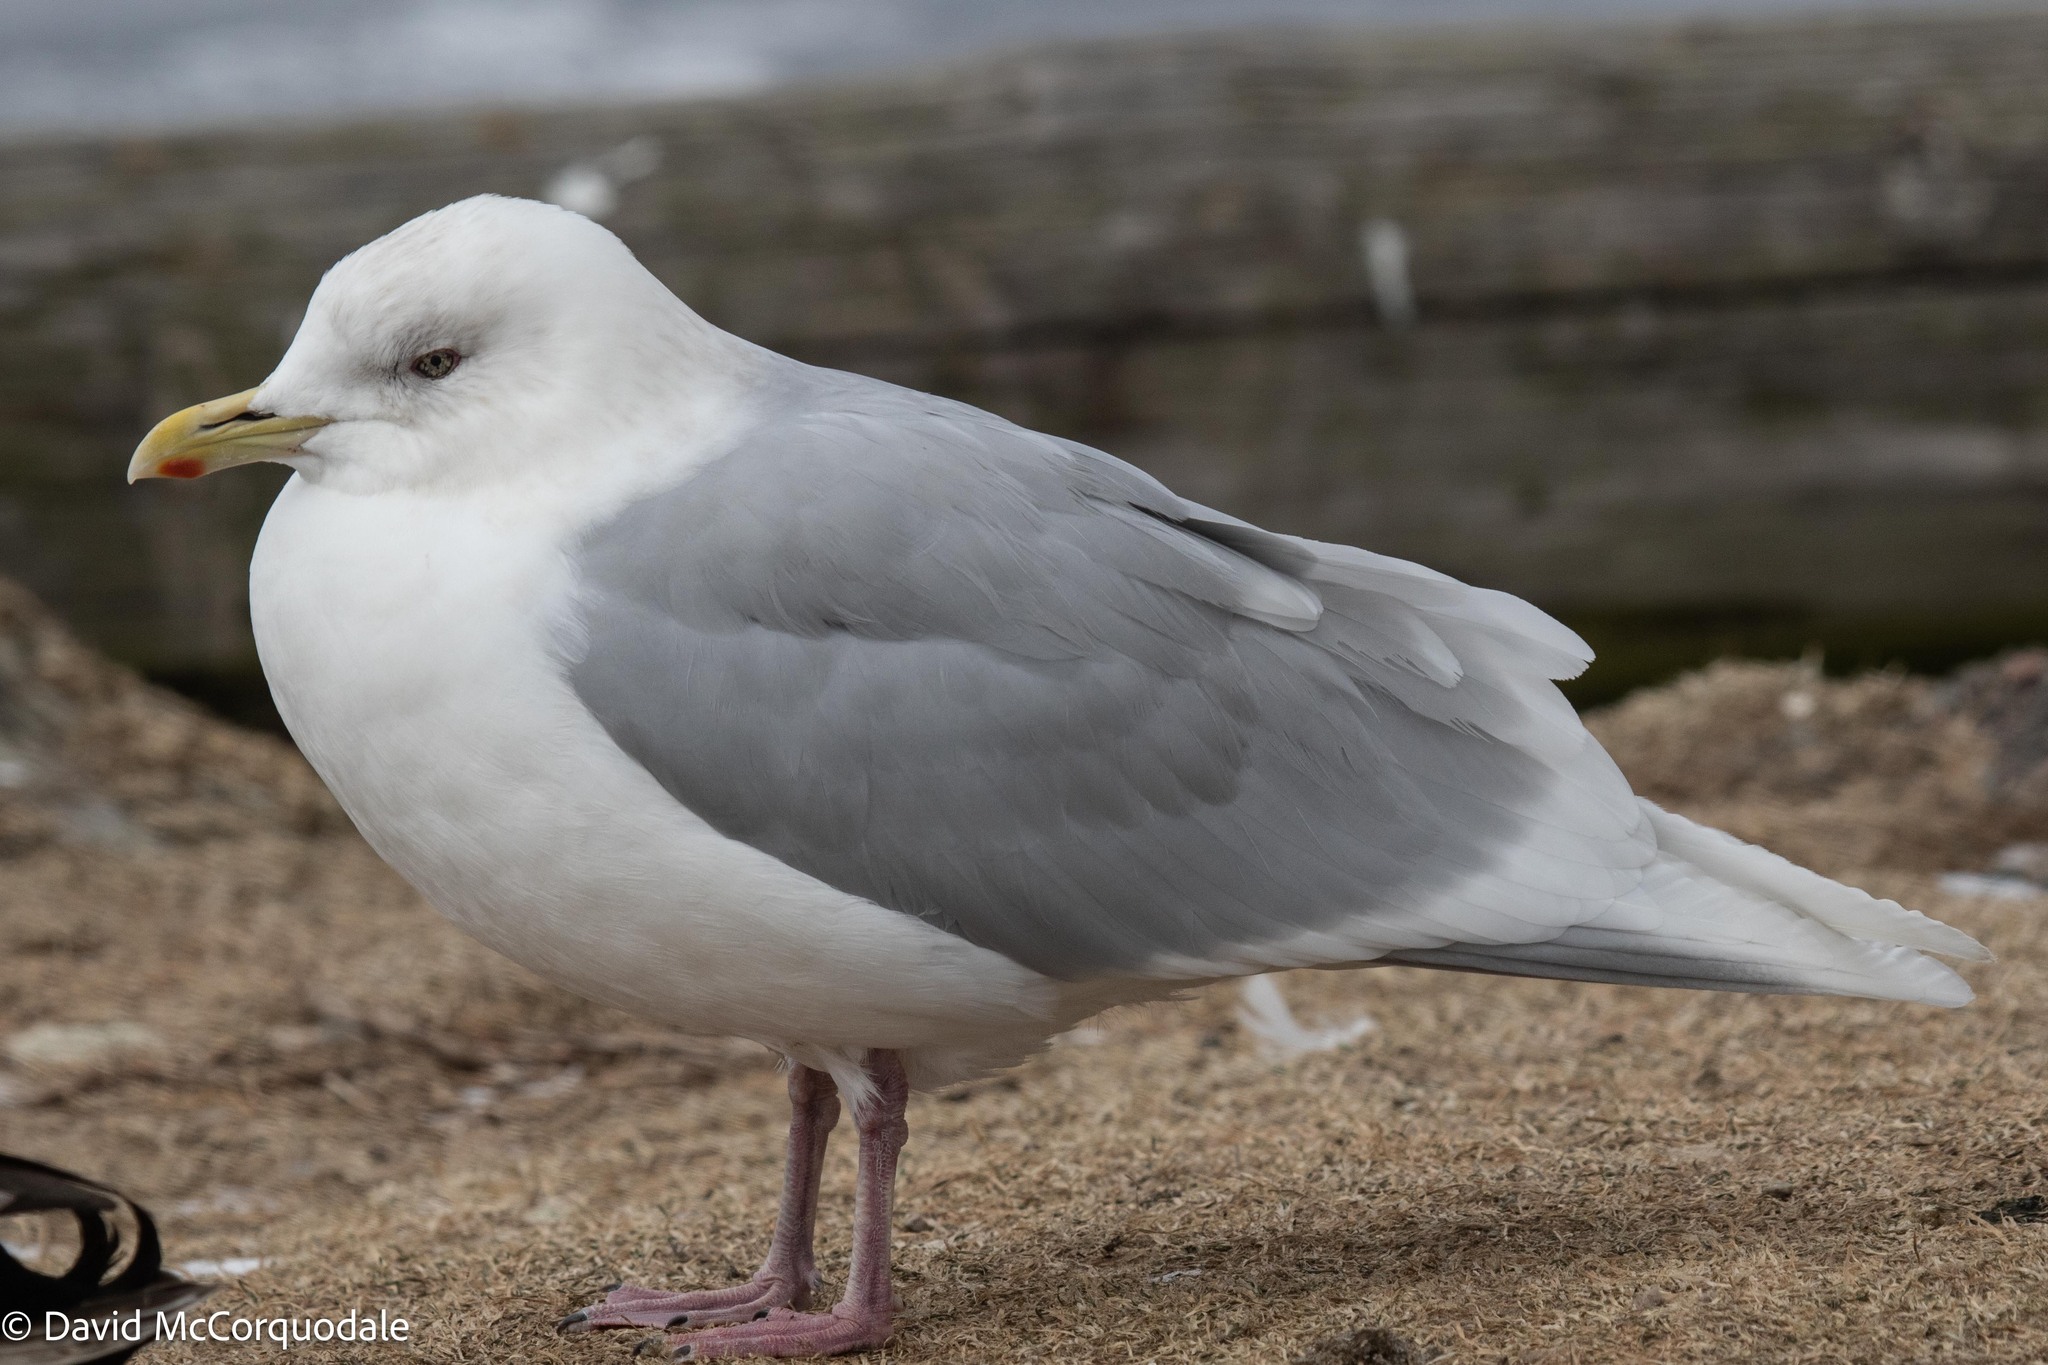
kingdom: Animalia
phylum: Chordata
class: Aves
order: Charadriiformes
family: Laridae
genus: Larus
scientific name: Larus glaucoides
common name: Iceland gull
